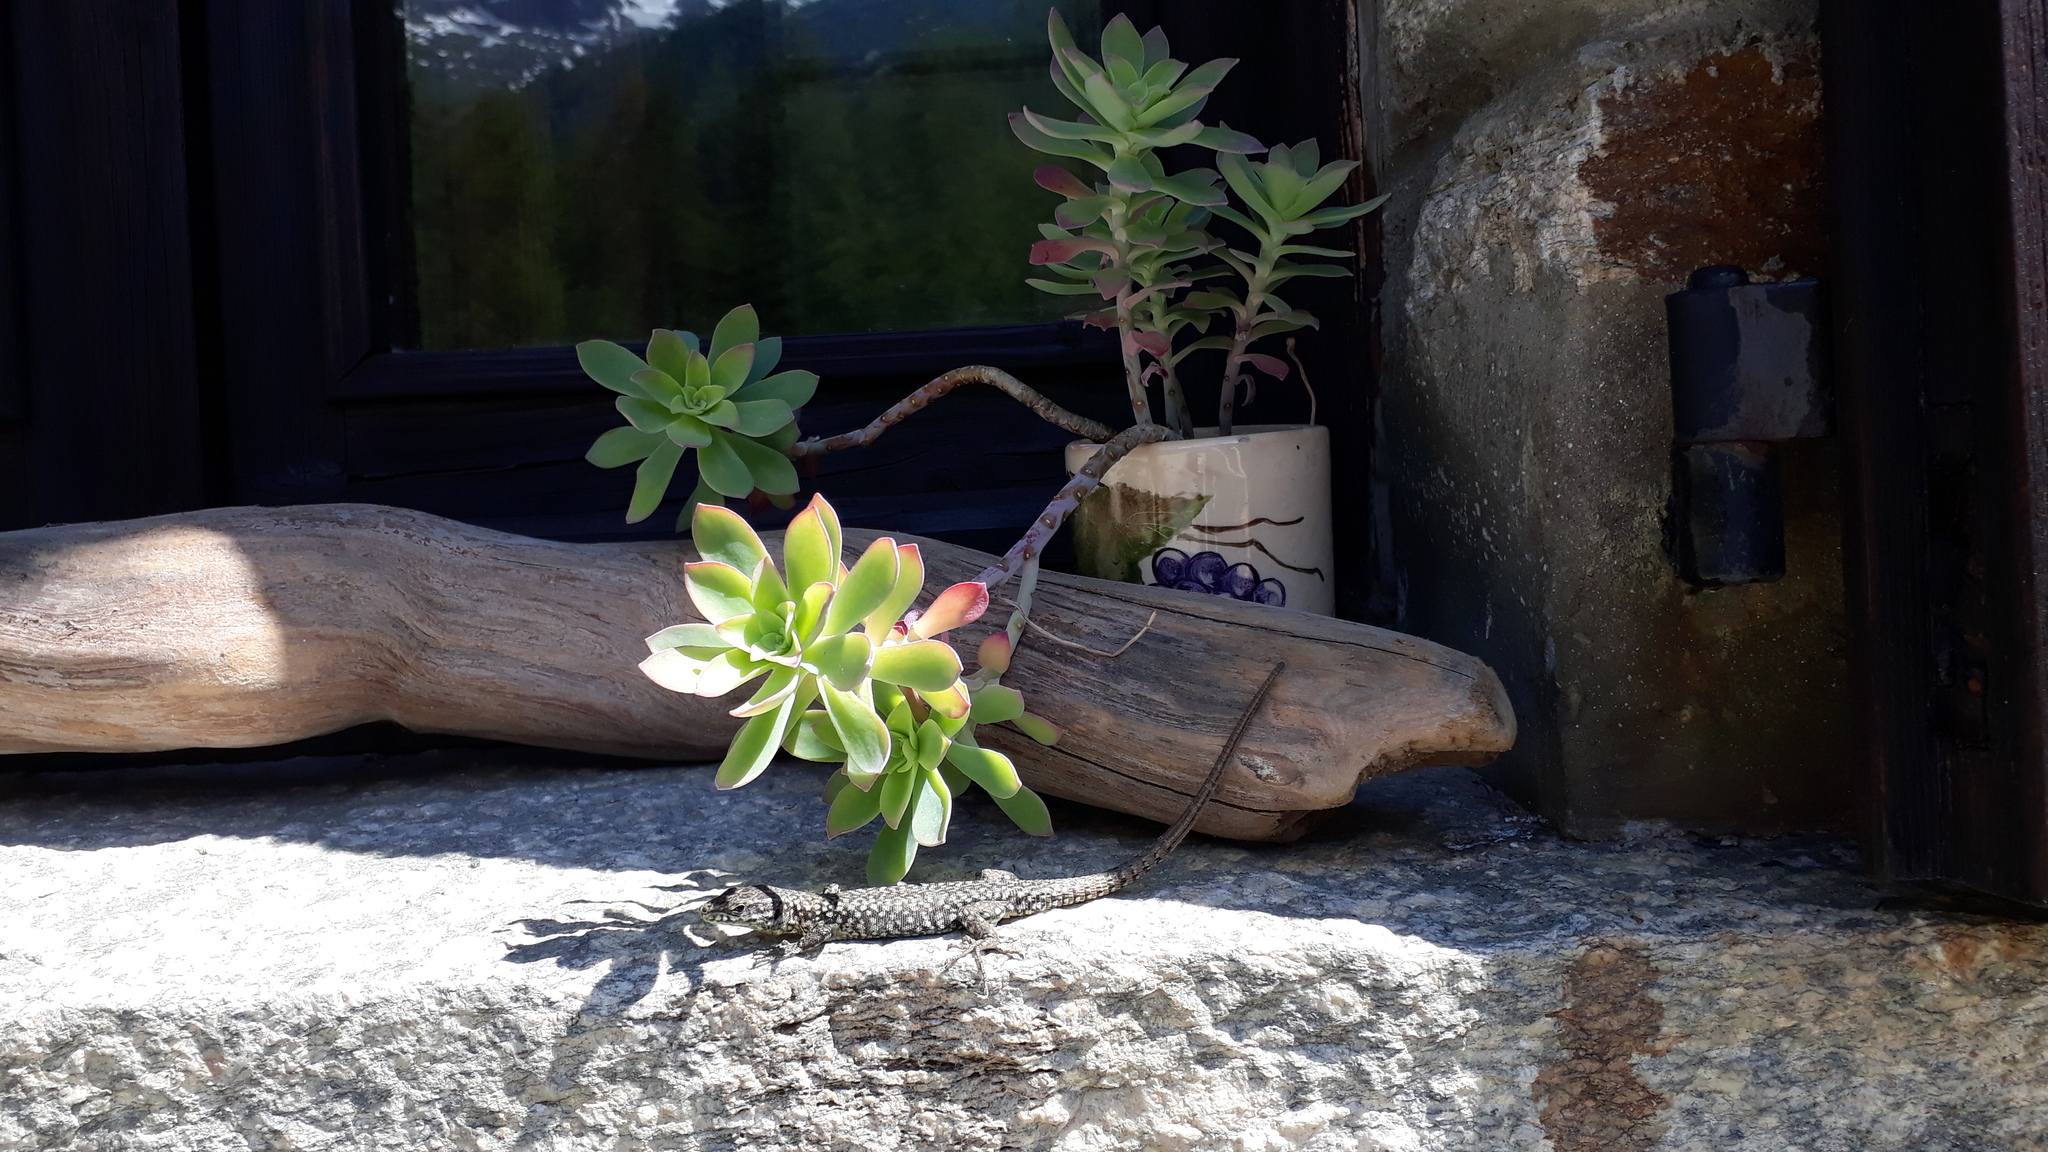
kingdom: Animalia
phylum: Chordata
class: Squamata
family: Lacertidae
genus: Podarcis
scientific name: Podarcis muralis
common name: Common wall lizard
